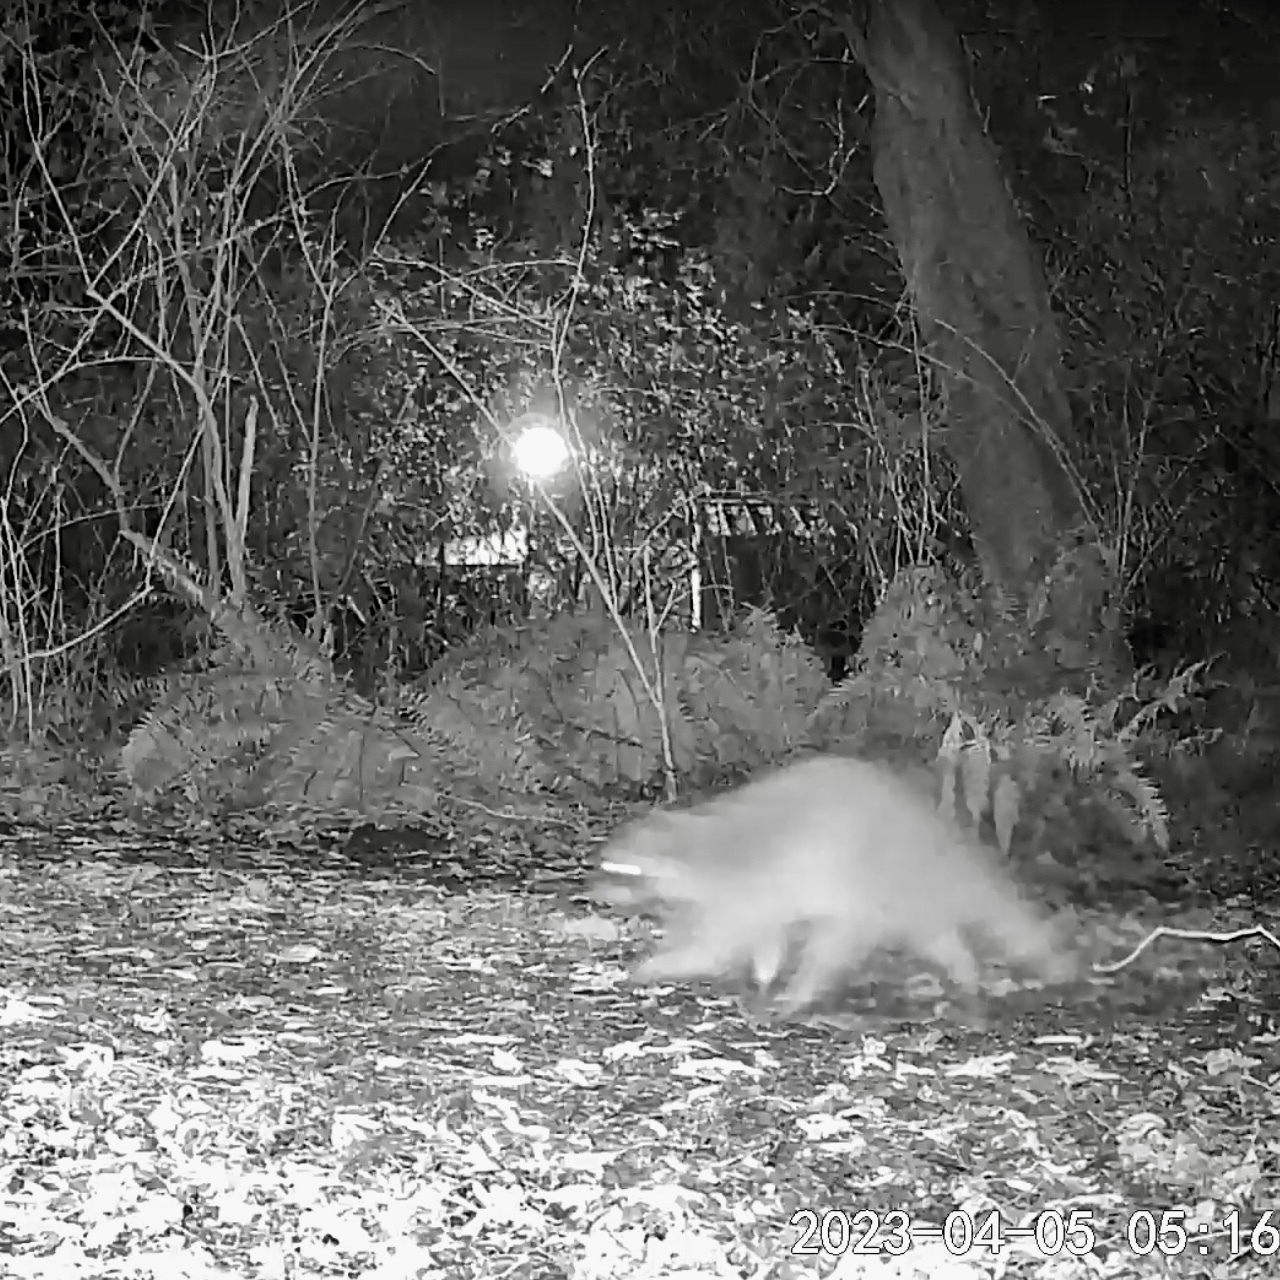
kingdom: Animalia
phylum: Chordata
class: Mammalia
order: Carnivora
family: Procyonidae
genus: Procyon
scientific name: Procyon lotor
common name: Raccoon
